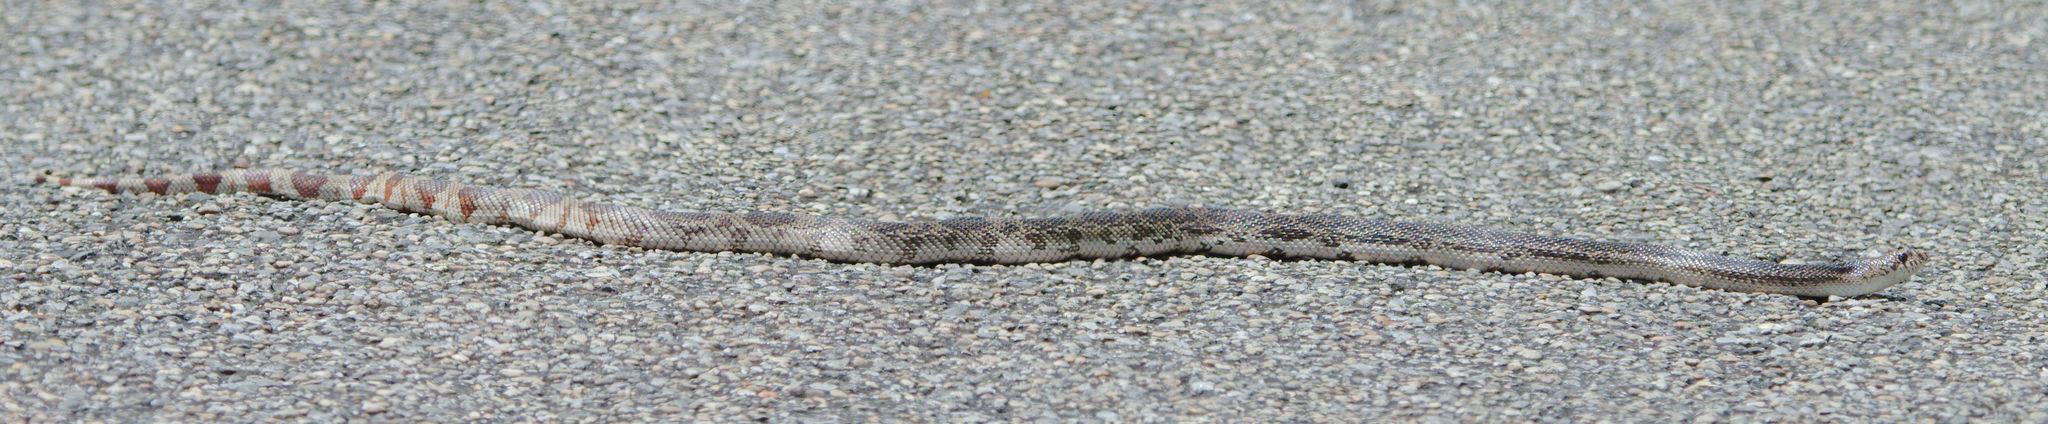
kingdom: Animalia
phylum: Chordata
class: Squamata
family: Colubridae
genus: Pituophis
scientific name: Pituophis melanoleucus
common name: Pine snake
